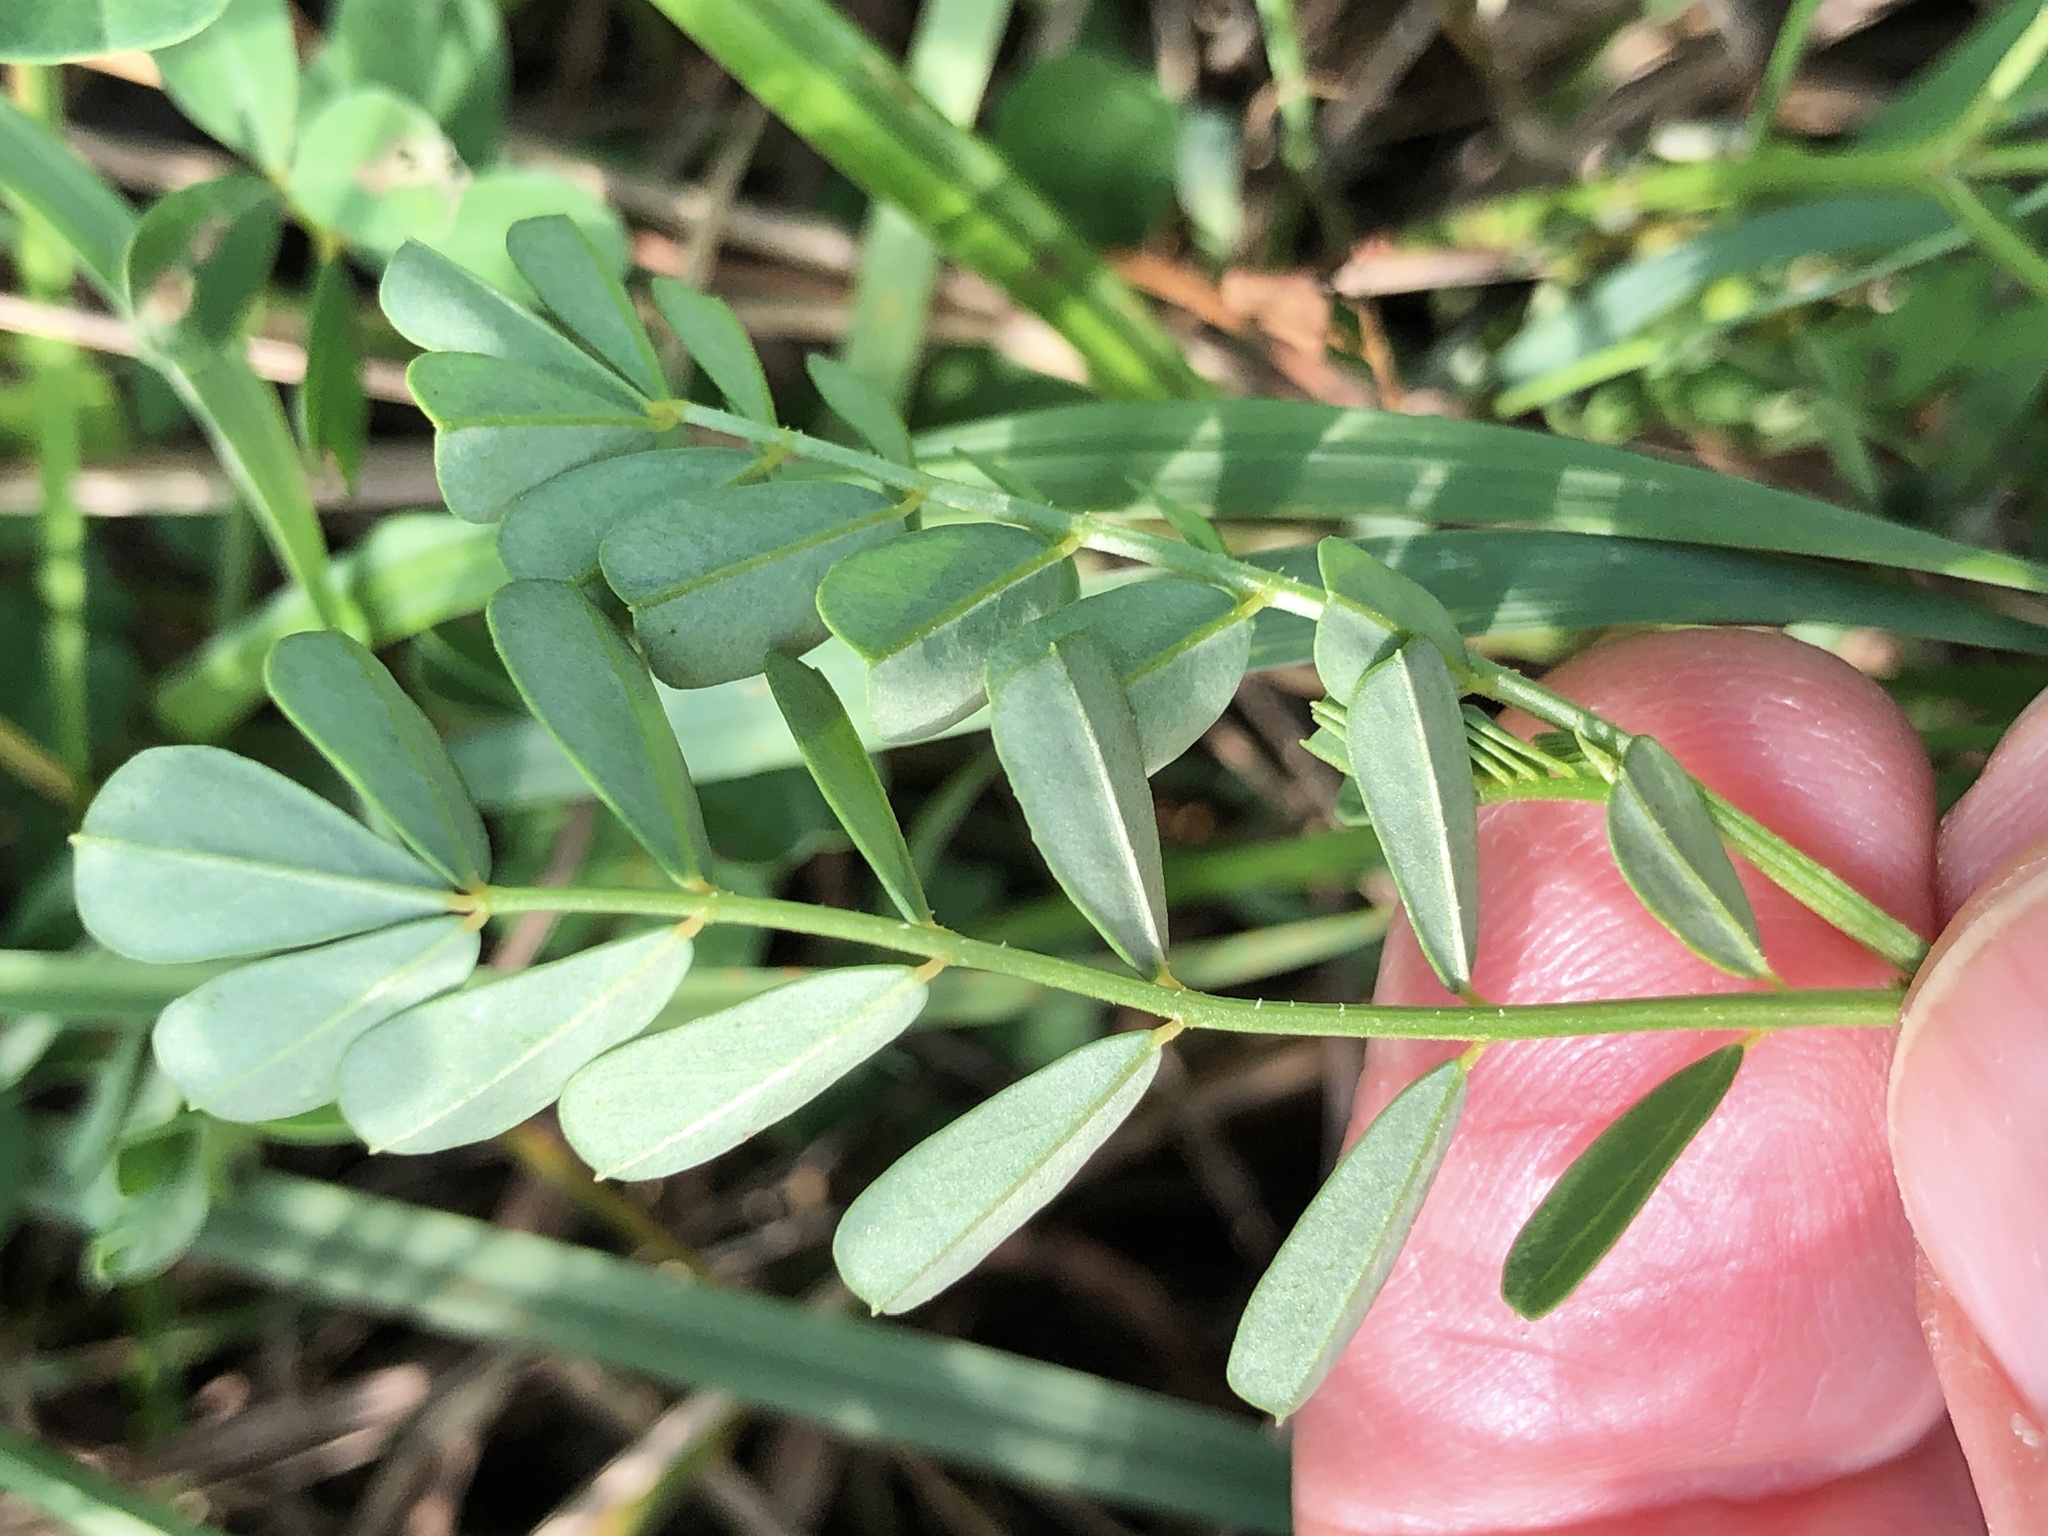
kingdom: Plantae
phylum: Tracheophyta
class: Magnoliopsida
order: Fabales
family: Fabaceae
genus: Coronilla
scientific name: Coronilla varia
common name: Crownvetch
